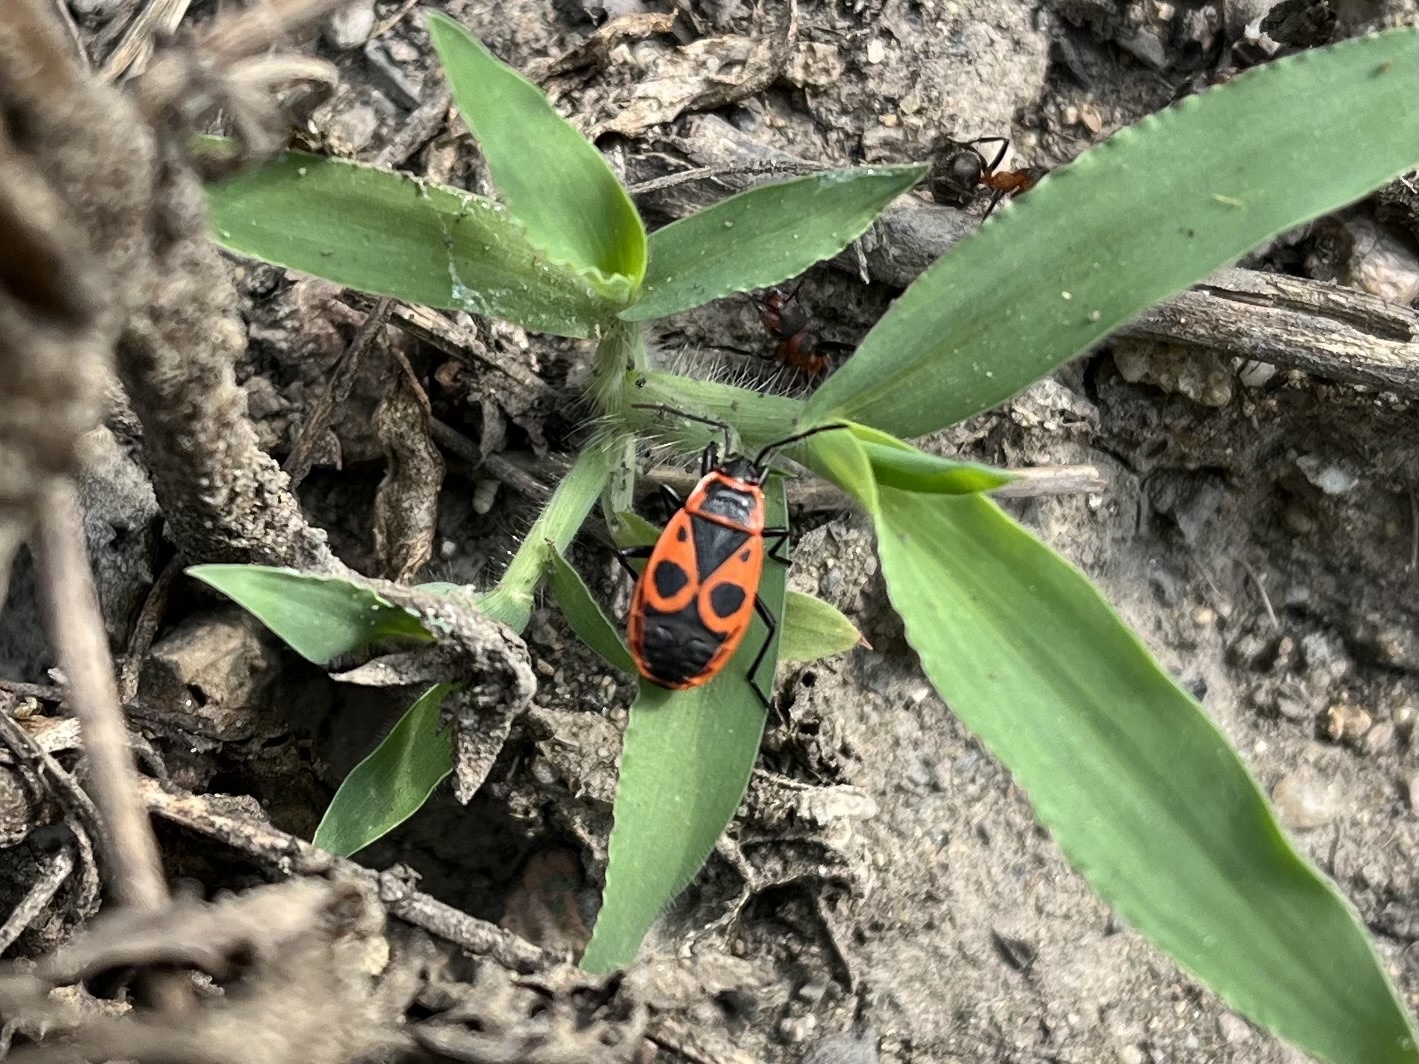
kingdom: Animalia
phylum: Arthropoda
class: Insecta
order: Hemiptera
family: Pyrrhocoridae
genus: Pyrrhocoris
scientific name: Pyrrhocoris apterus
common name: Firebug
